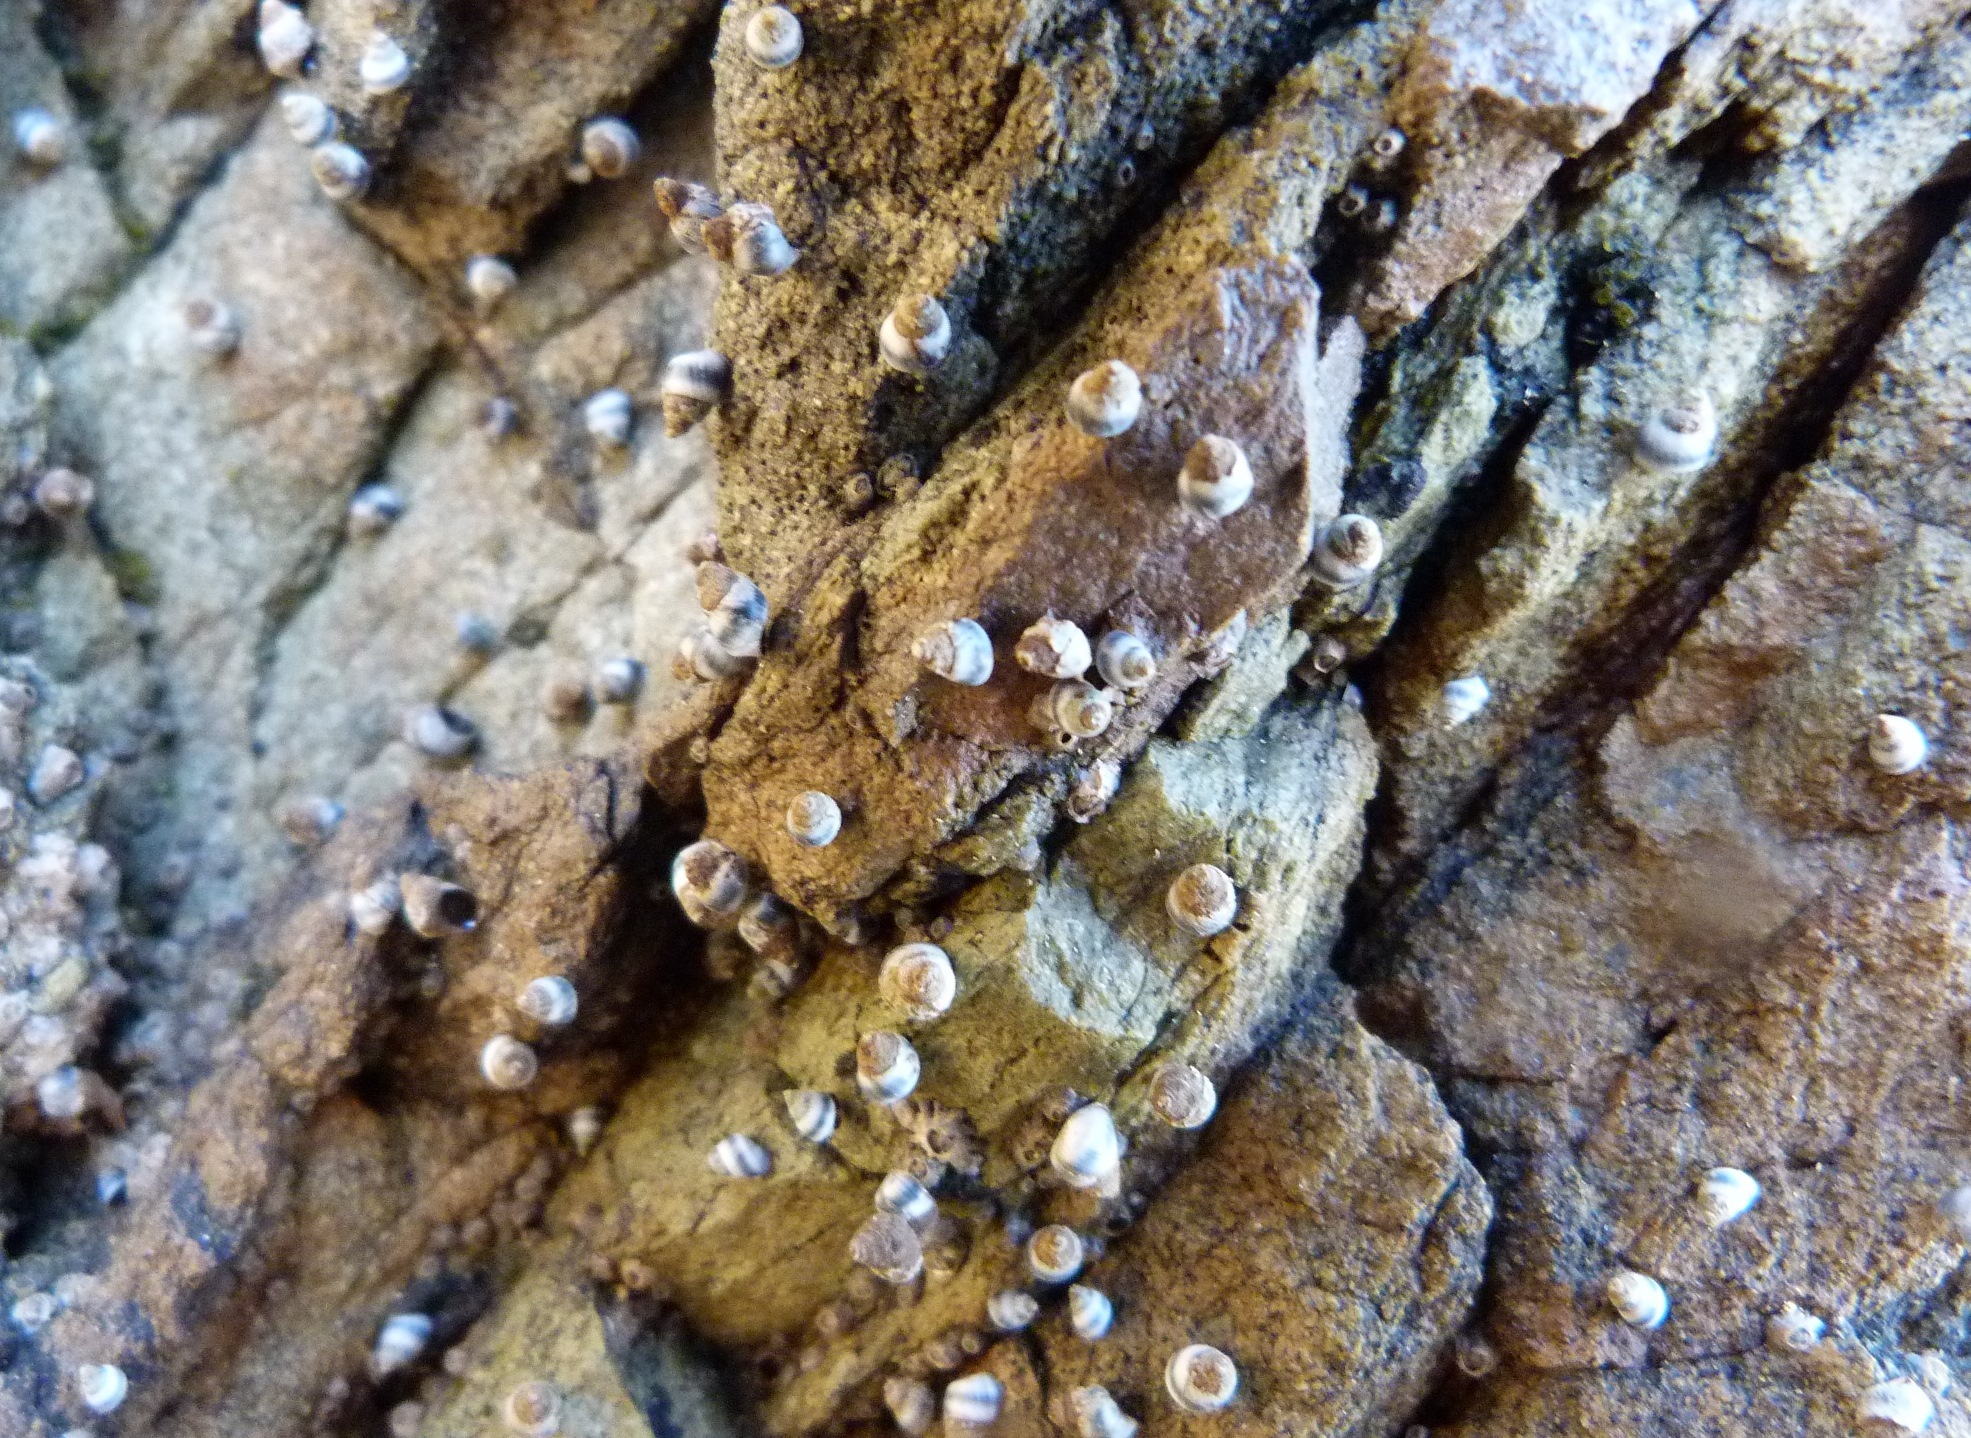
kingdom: Animalia
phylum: Mollusca
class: Gastropoda
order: Littorinimorpha
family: Littorinidae
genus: Austrolittorina
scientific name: Austrolittorina antipodum
